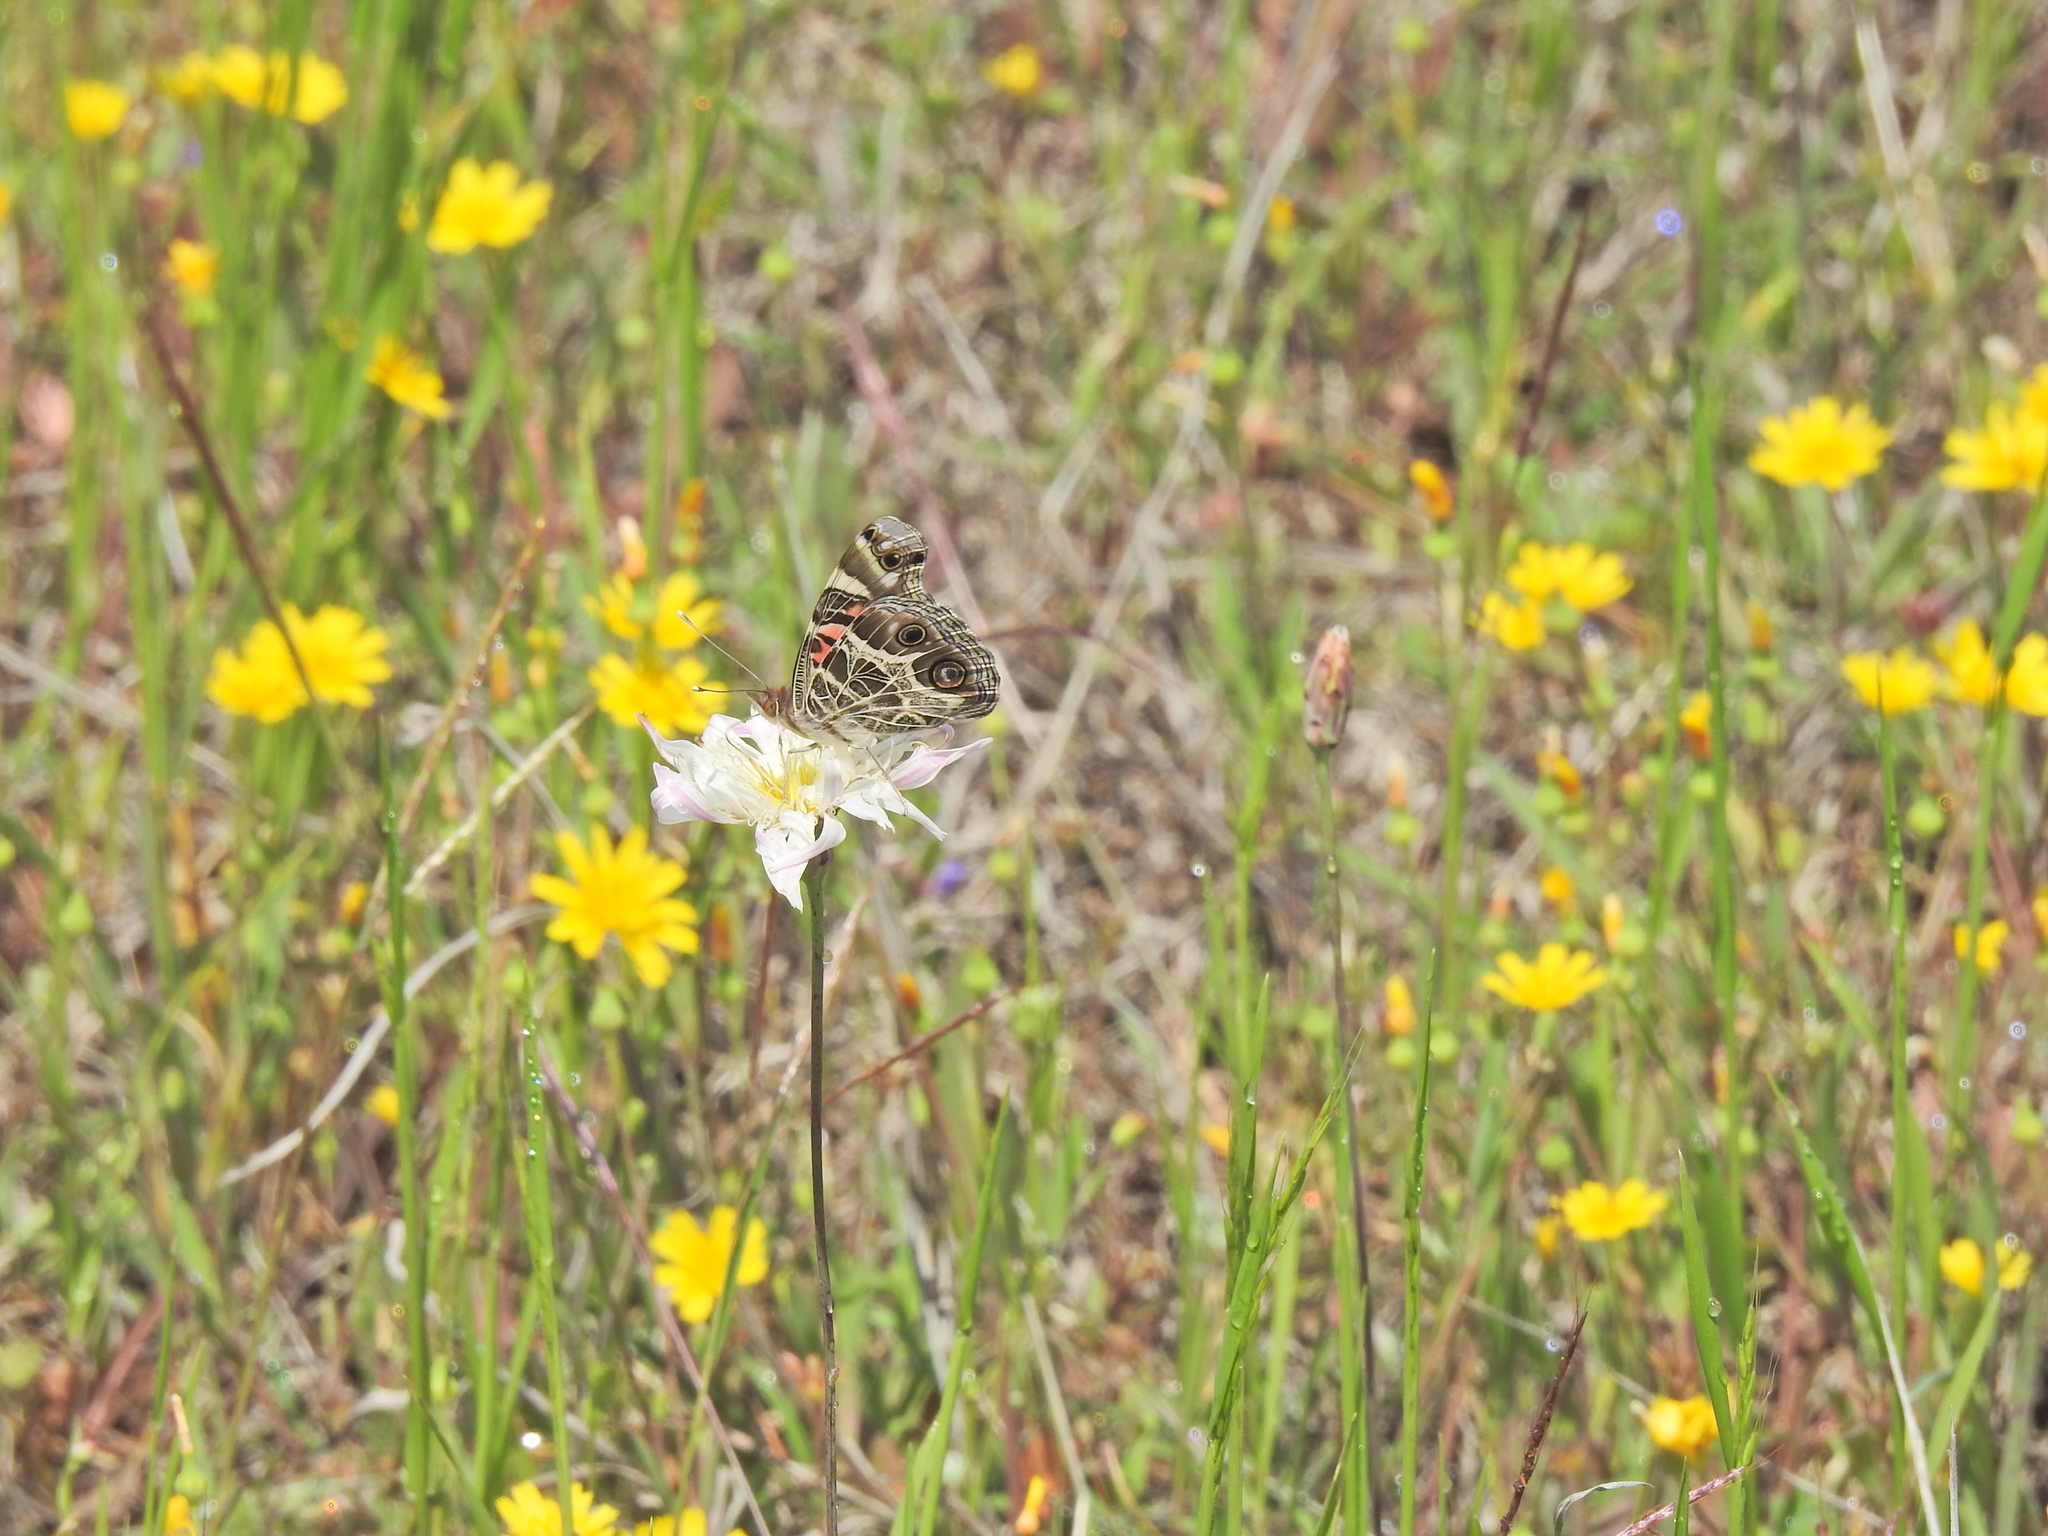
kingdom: Animalia
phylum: Arthropoda
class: Insecta
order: Lepidoptera
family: Nymphalidae
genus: Vanessa
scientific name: Vanessa virginiensis
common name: American lady
